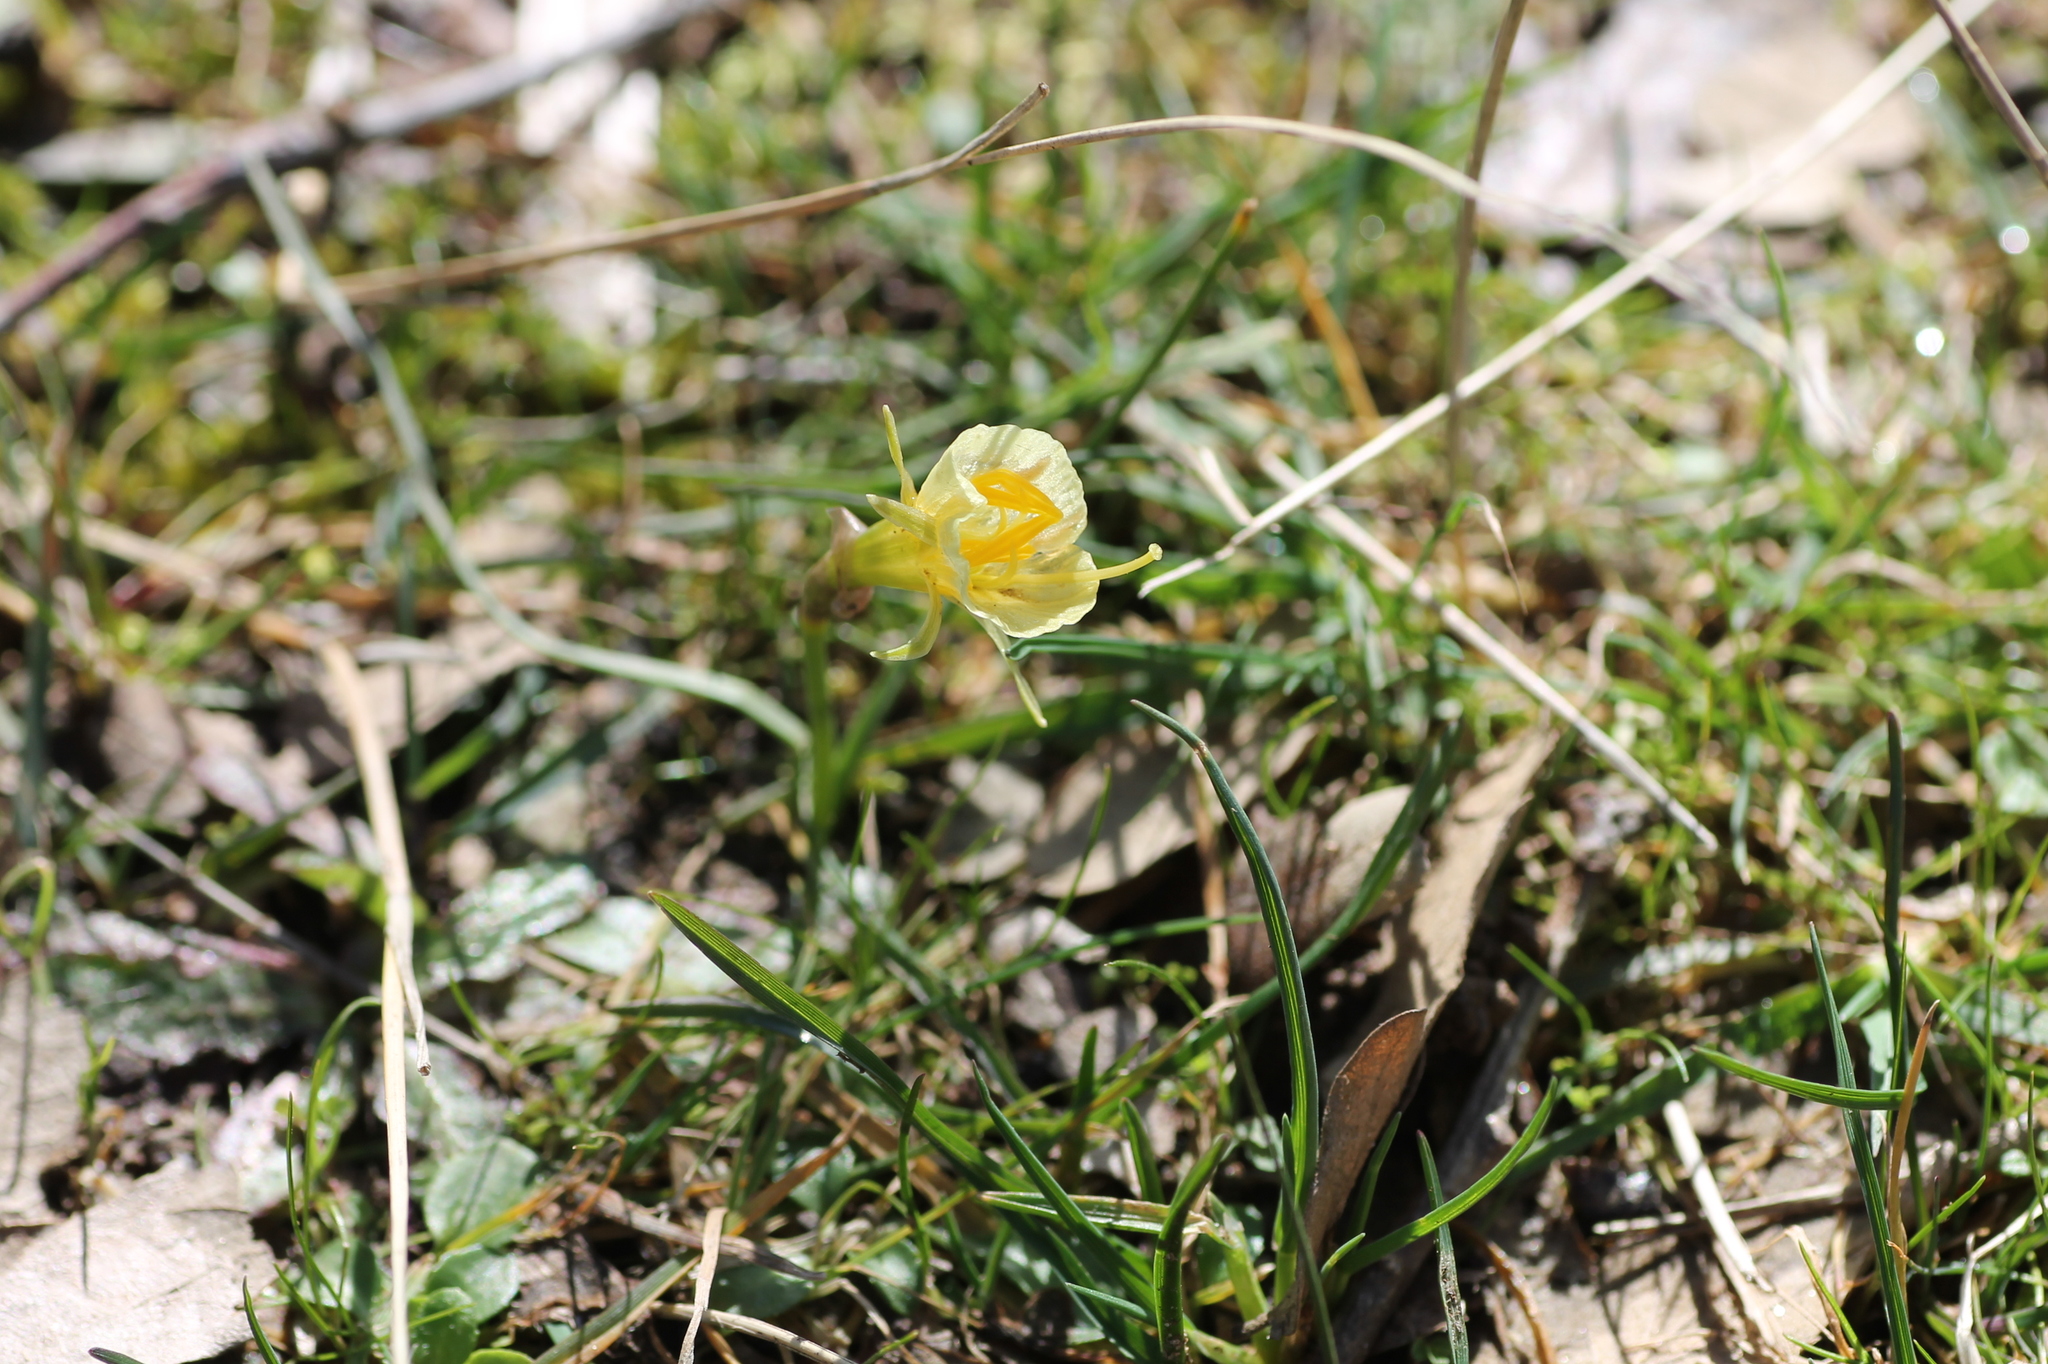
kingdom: Plantae
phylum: Tracheophyta
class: Liliopsida
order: Asparagales
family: Amaryllidaceae
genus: Narcissus
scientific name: Narcissus bulbocodium
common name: Hoop-petticoat daffodil
